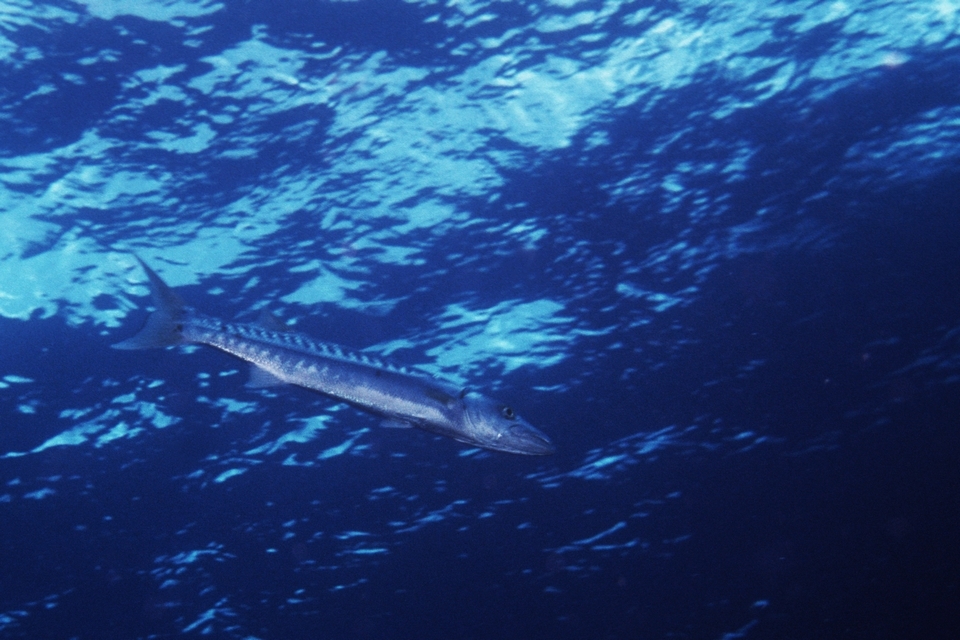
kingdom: Animalia
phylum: Chordata
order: Perciformes
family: Sphyraenidae
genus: Sphyraena
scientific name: Sphyraena barracuda
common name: Great barracuda
